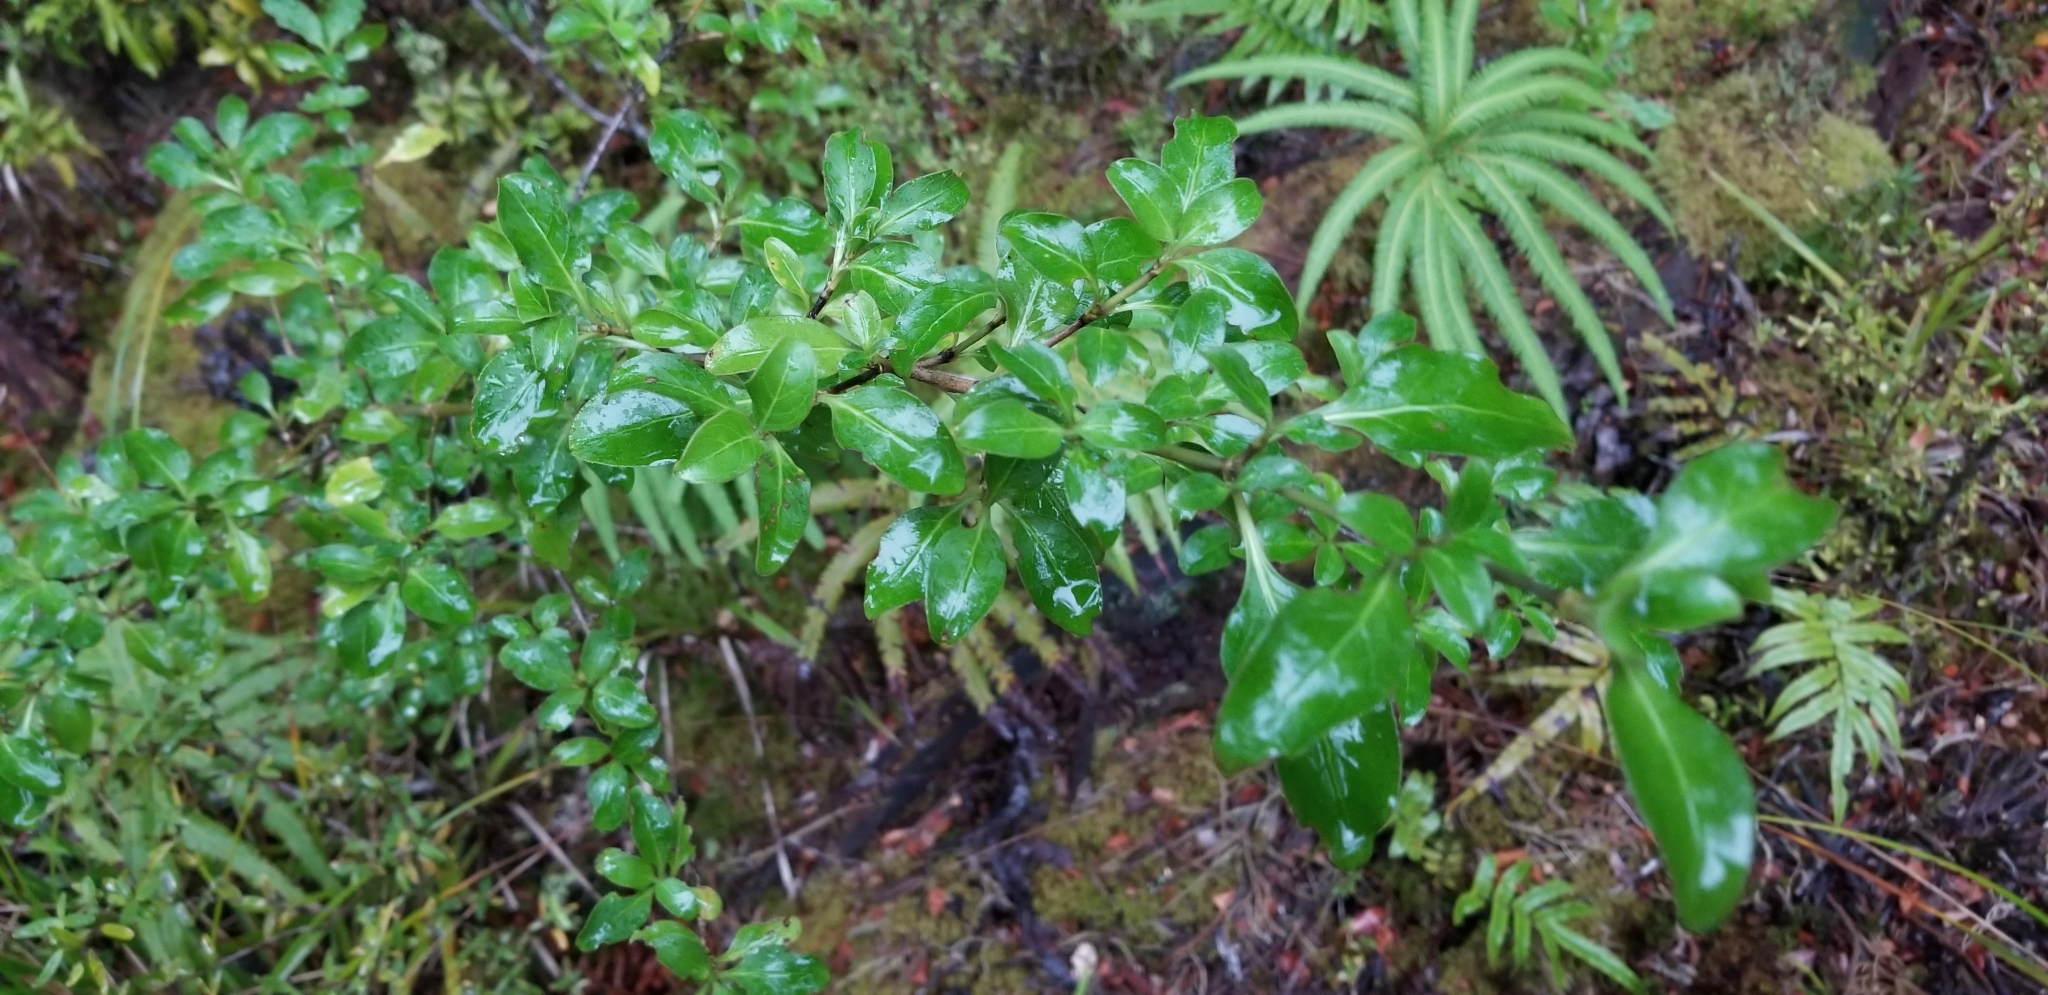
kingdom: Plantae
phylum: Tracheophyta
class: Magnoliopsida
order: Gentianales
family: Rubiaceae
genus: Coprosma
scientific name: Coprosma foetidissima
